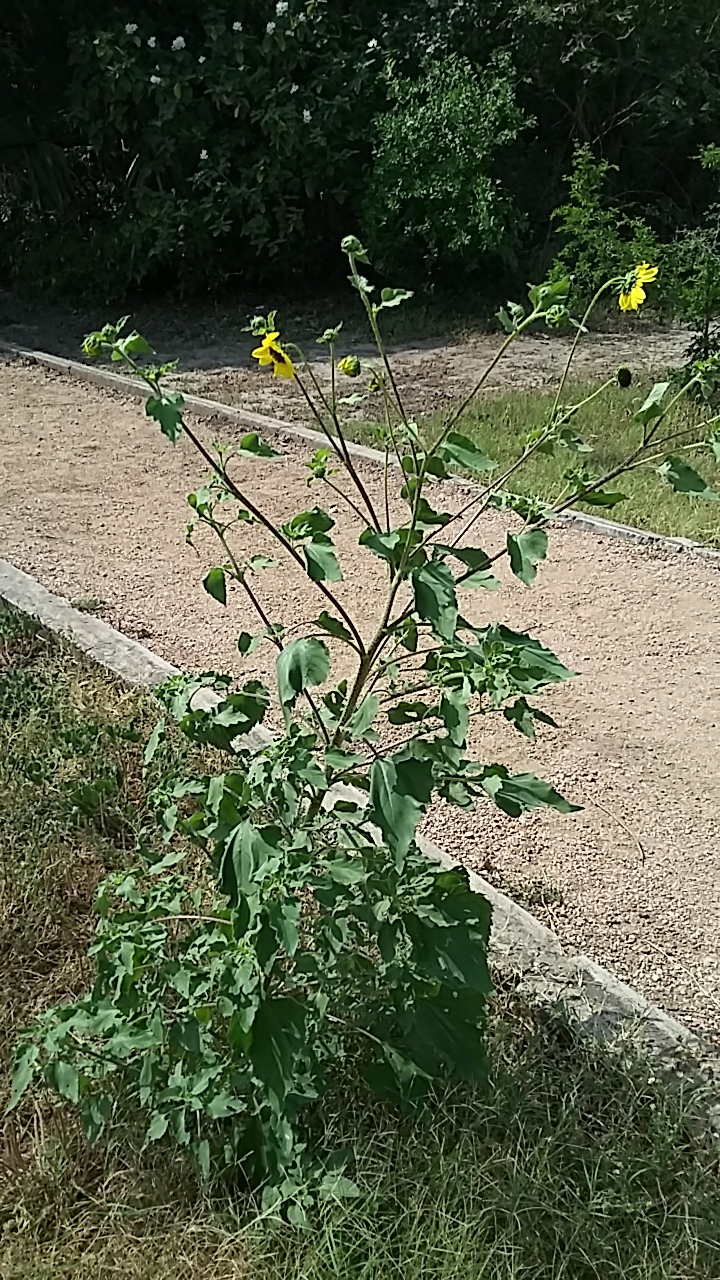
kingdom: Plantae
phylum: Tracheophyta
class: Magnoliopsida
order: Asterales
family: Asteraceae
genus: Helianthus
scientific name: Helianthus annuus
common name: Sunflower
